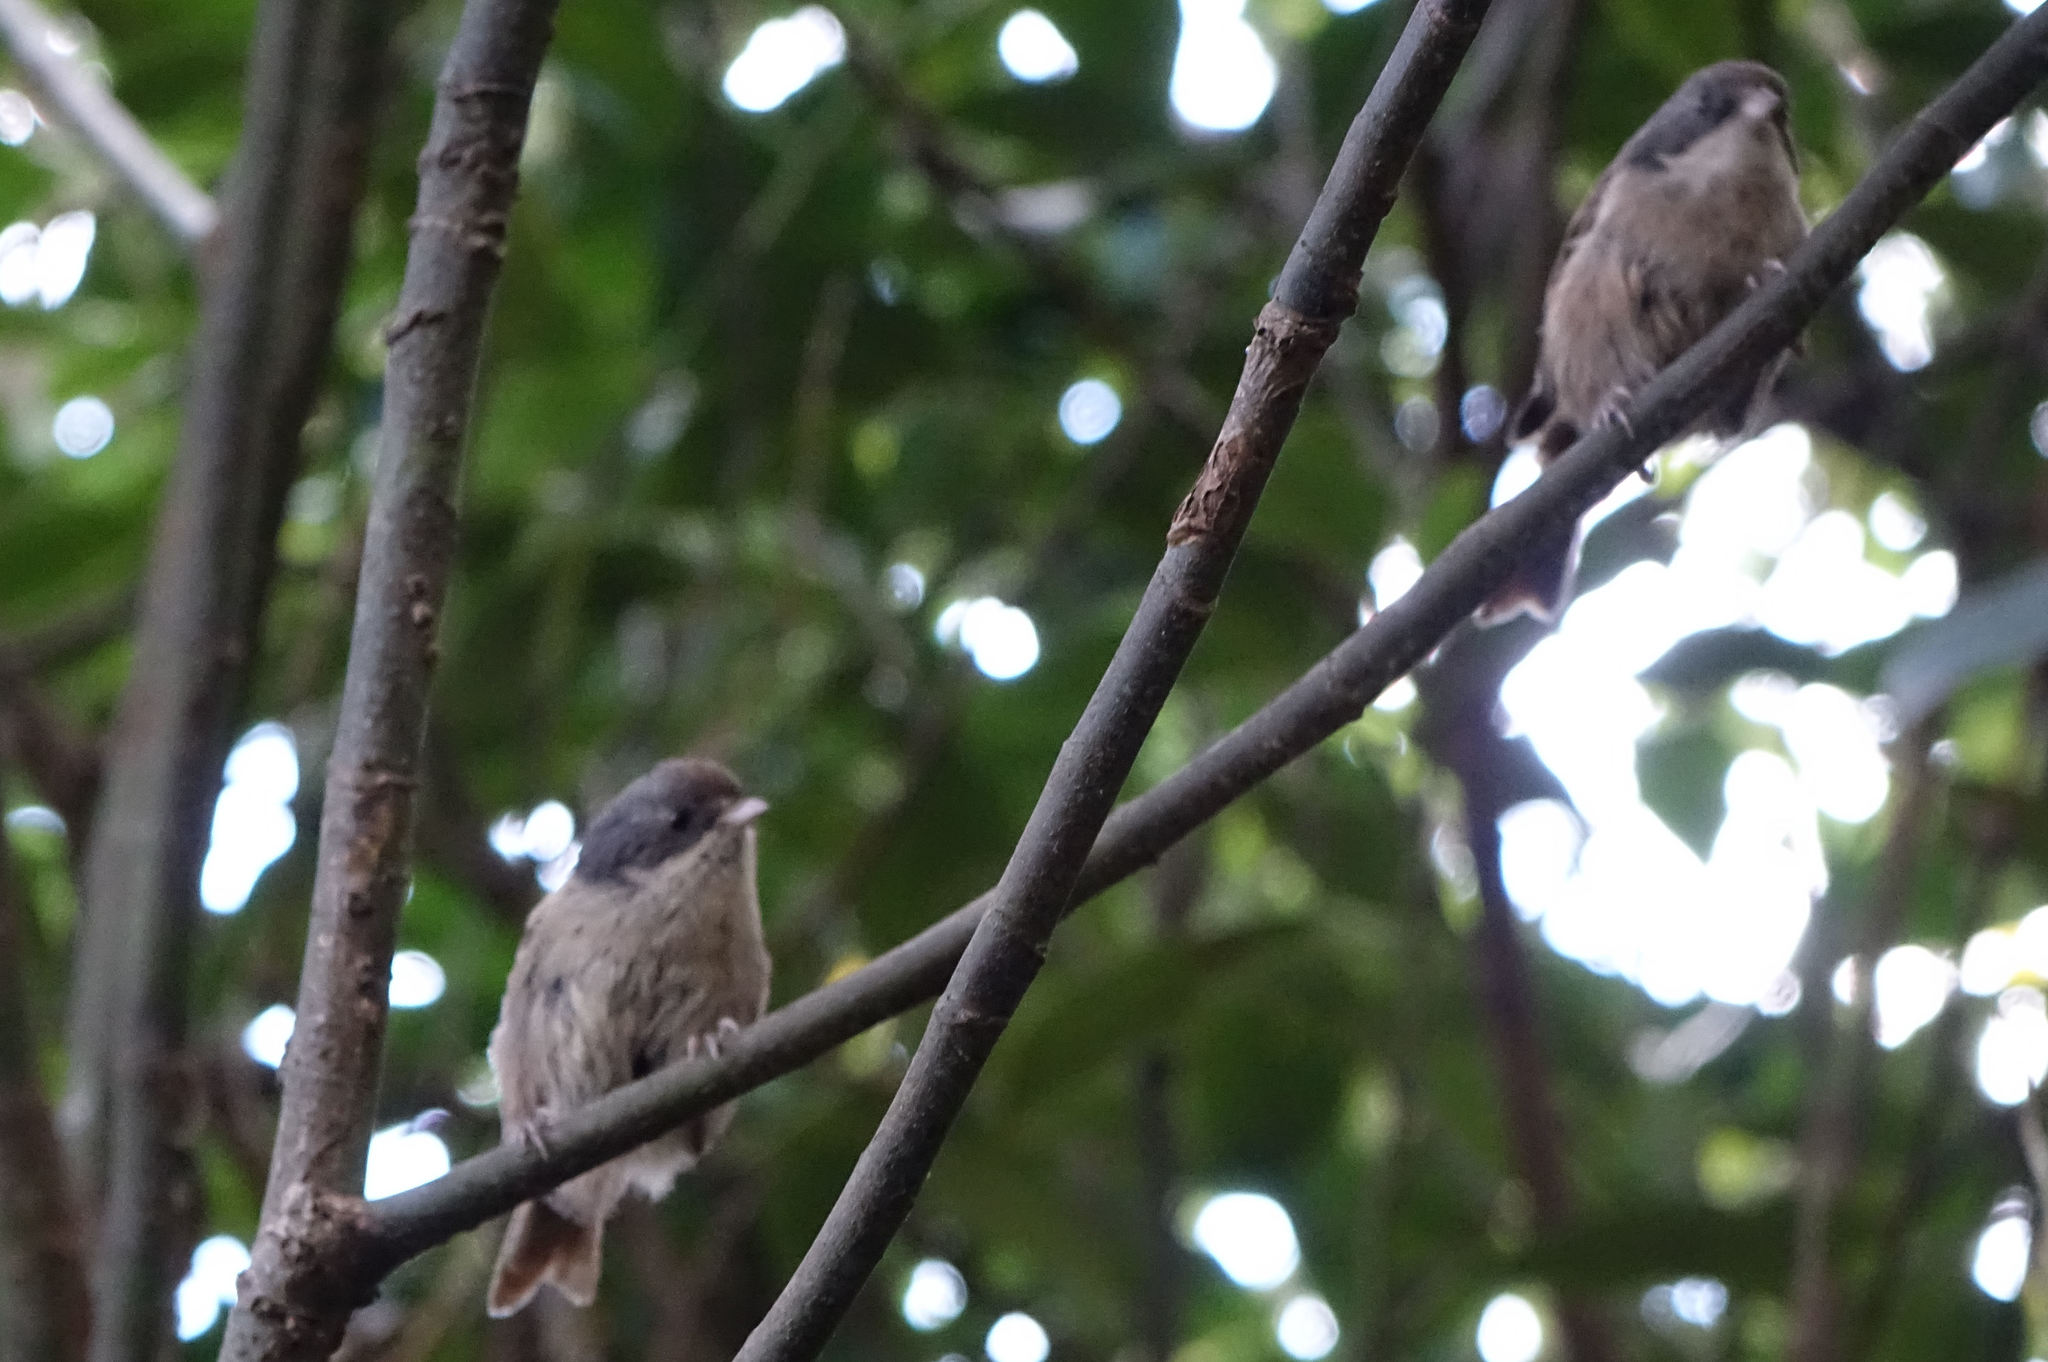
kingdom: Animalia
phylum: Chordata
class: Aves
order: Passeriformes
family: Acanthizidae
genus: Finschia
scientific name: Finschia novaeseelandiae
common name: Pipipi
